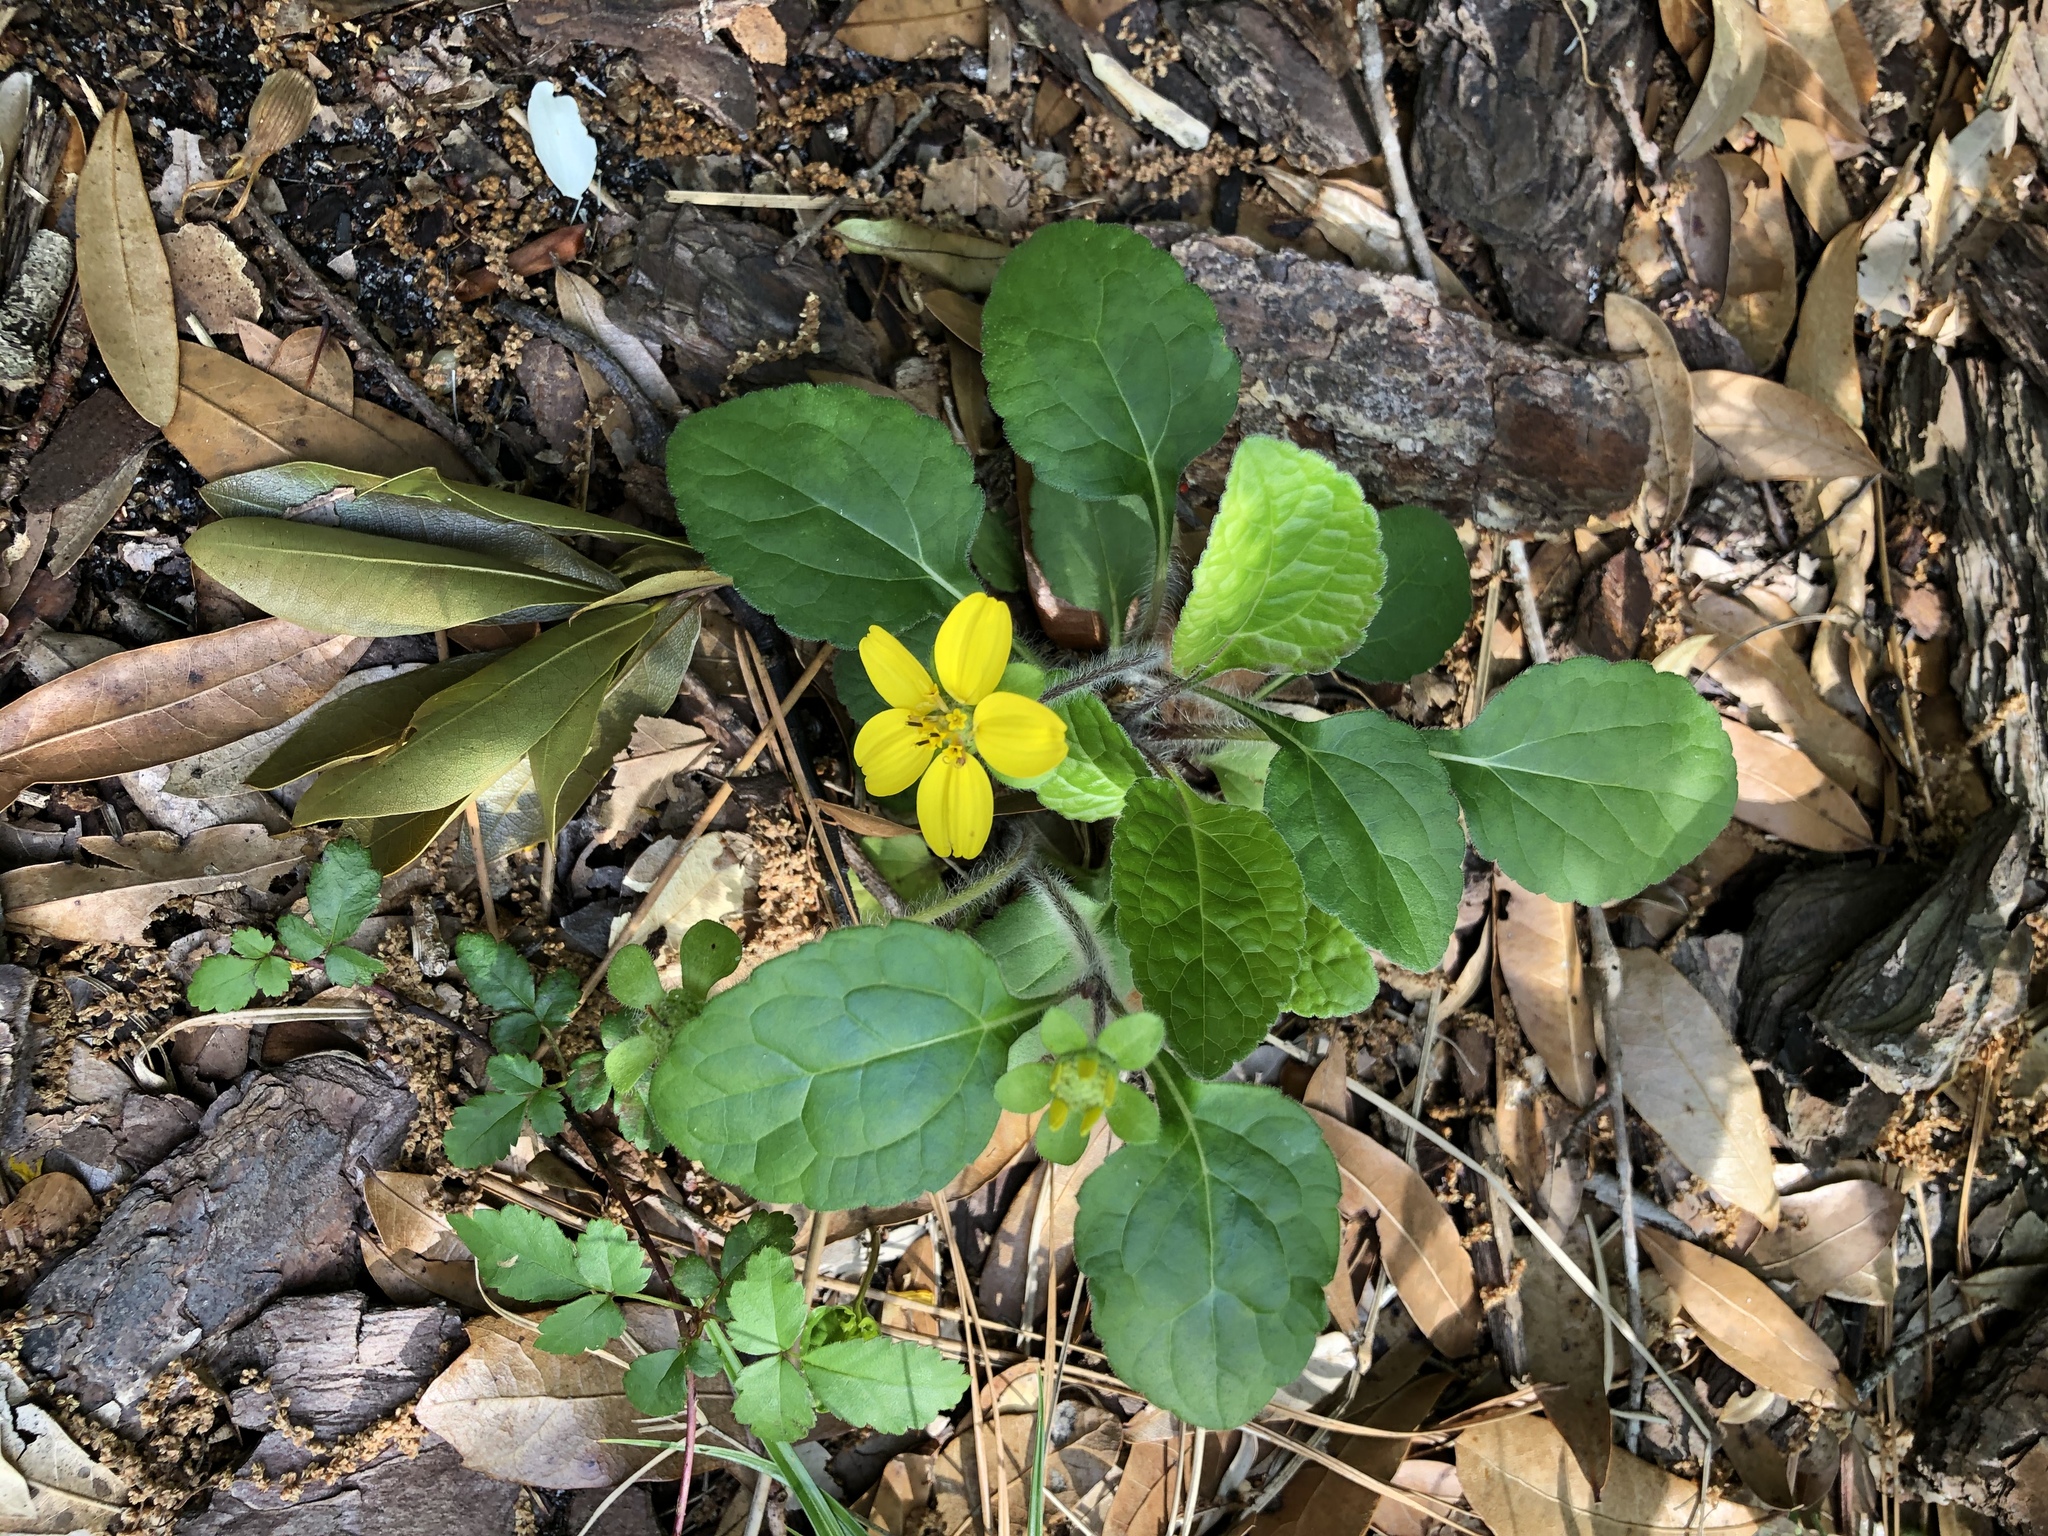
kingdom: Plantae
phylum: Tracheophyta
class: Magnoliopsida
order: Asterales
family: Asteraceae
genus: Chrysogonum
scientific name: Chrysogonum virginianum
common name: Golden-knee
